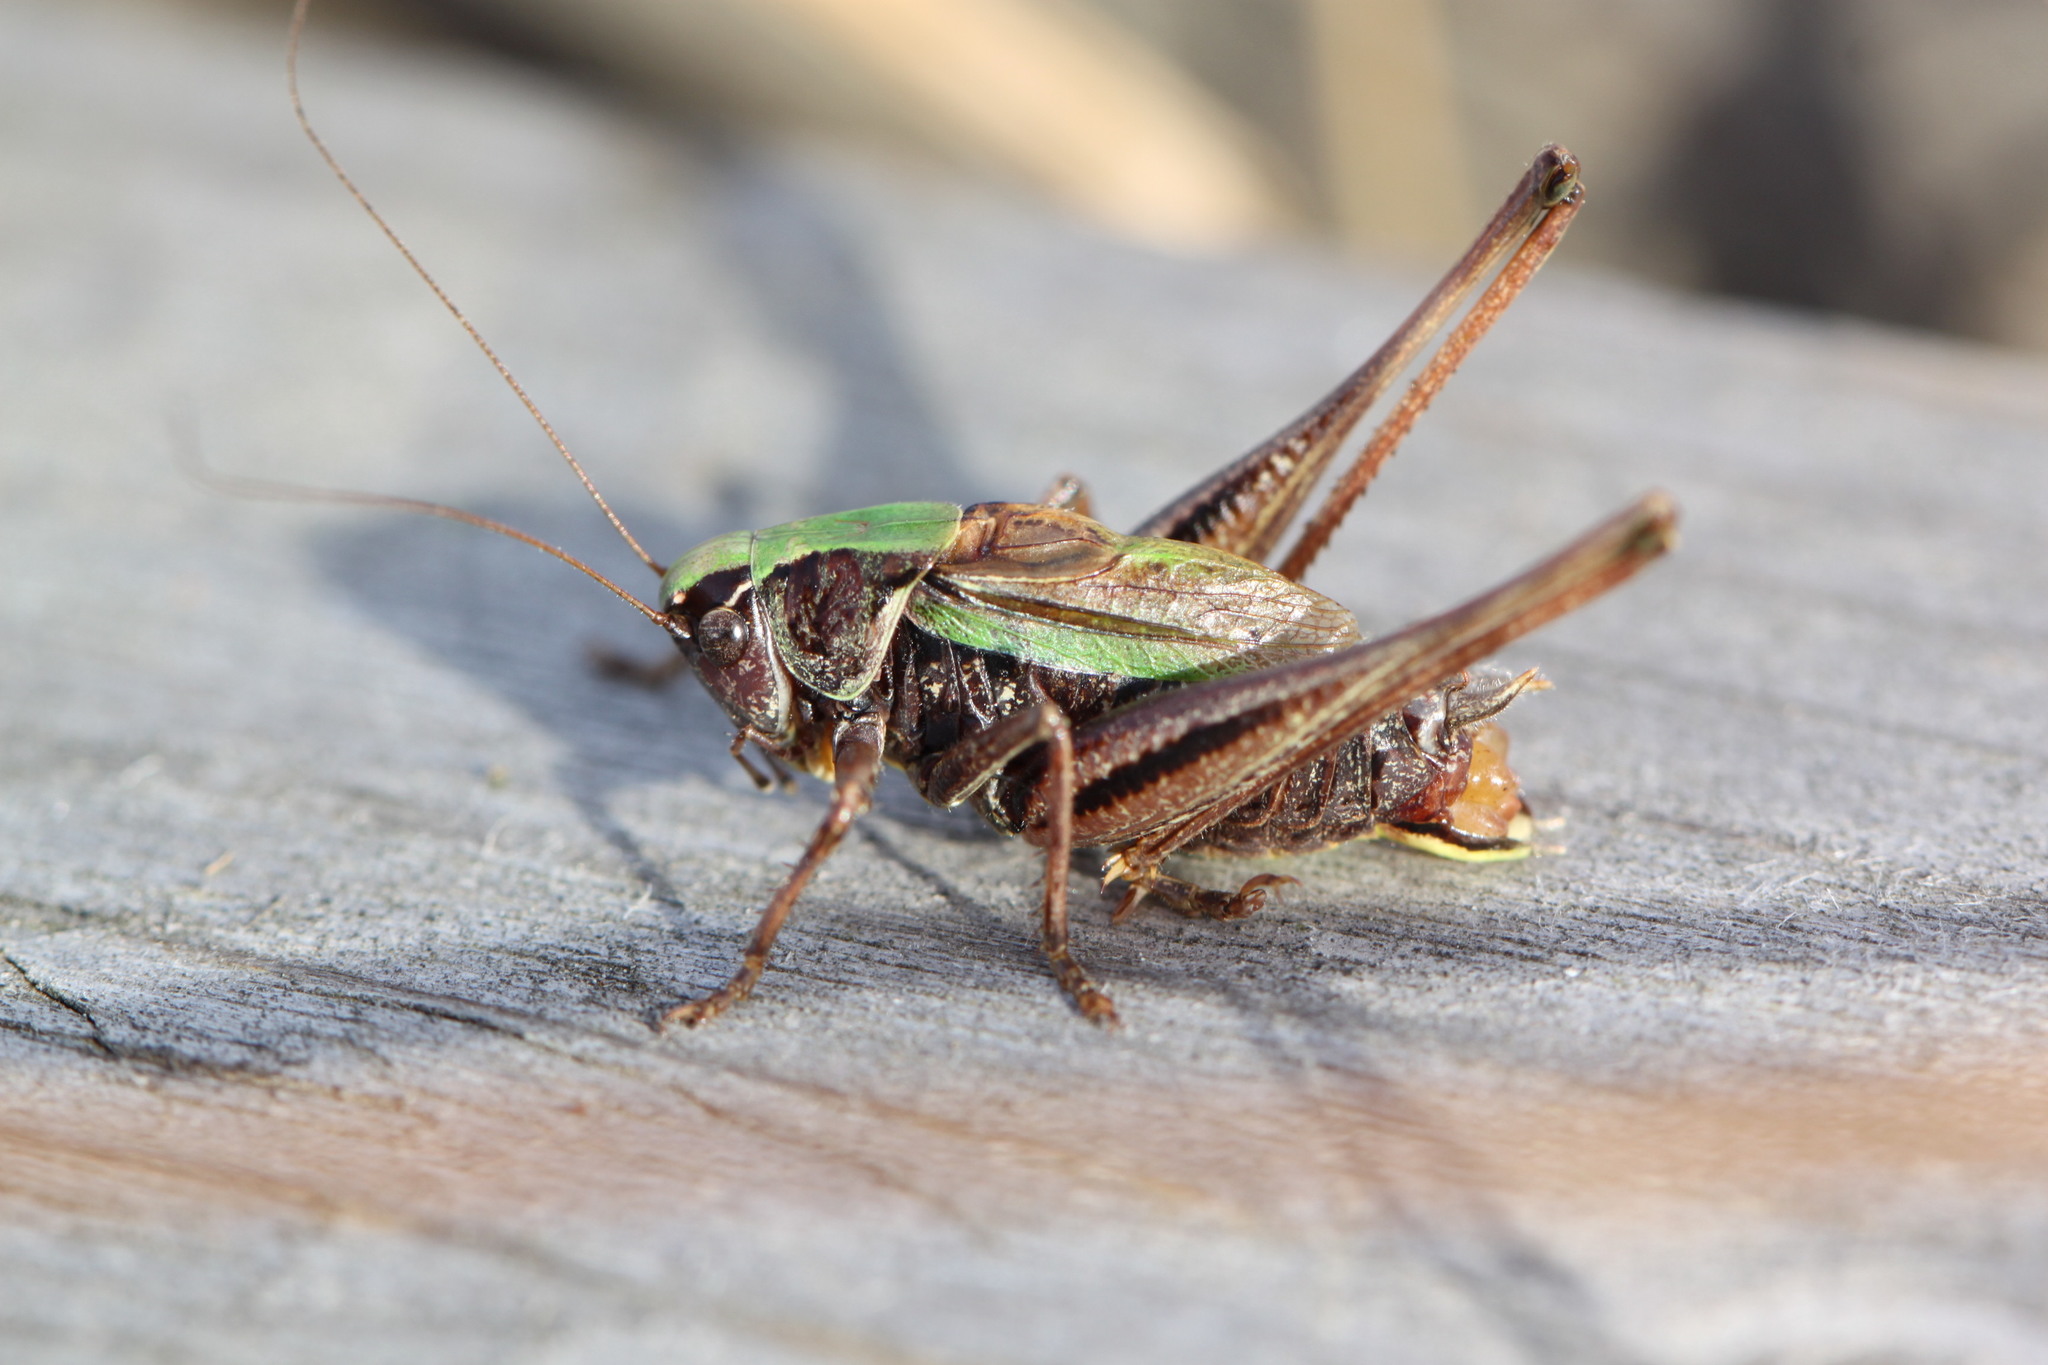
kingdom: Animalia
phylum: Arthropoda
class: Insecta
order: Orthoptera
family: Tettigoniidae
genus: Metrioptera
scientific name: Metrioptera brachyptera
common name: Bog bush-cricket
